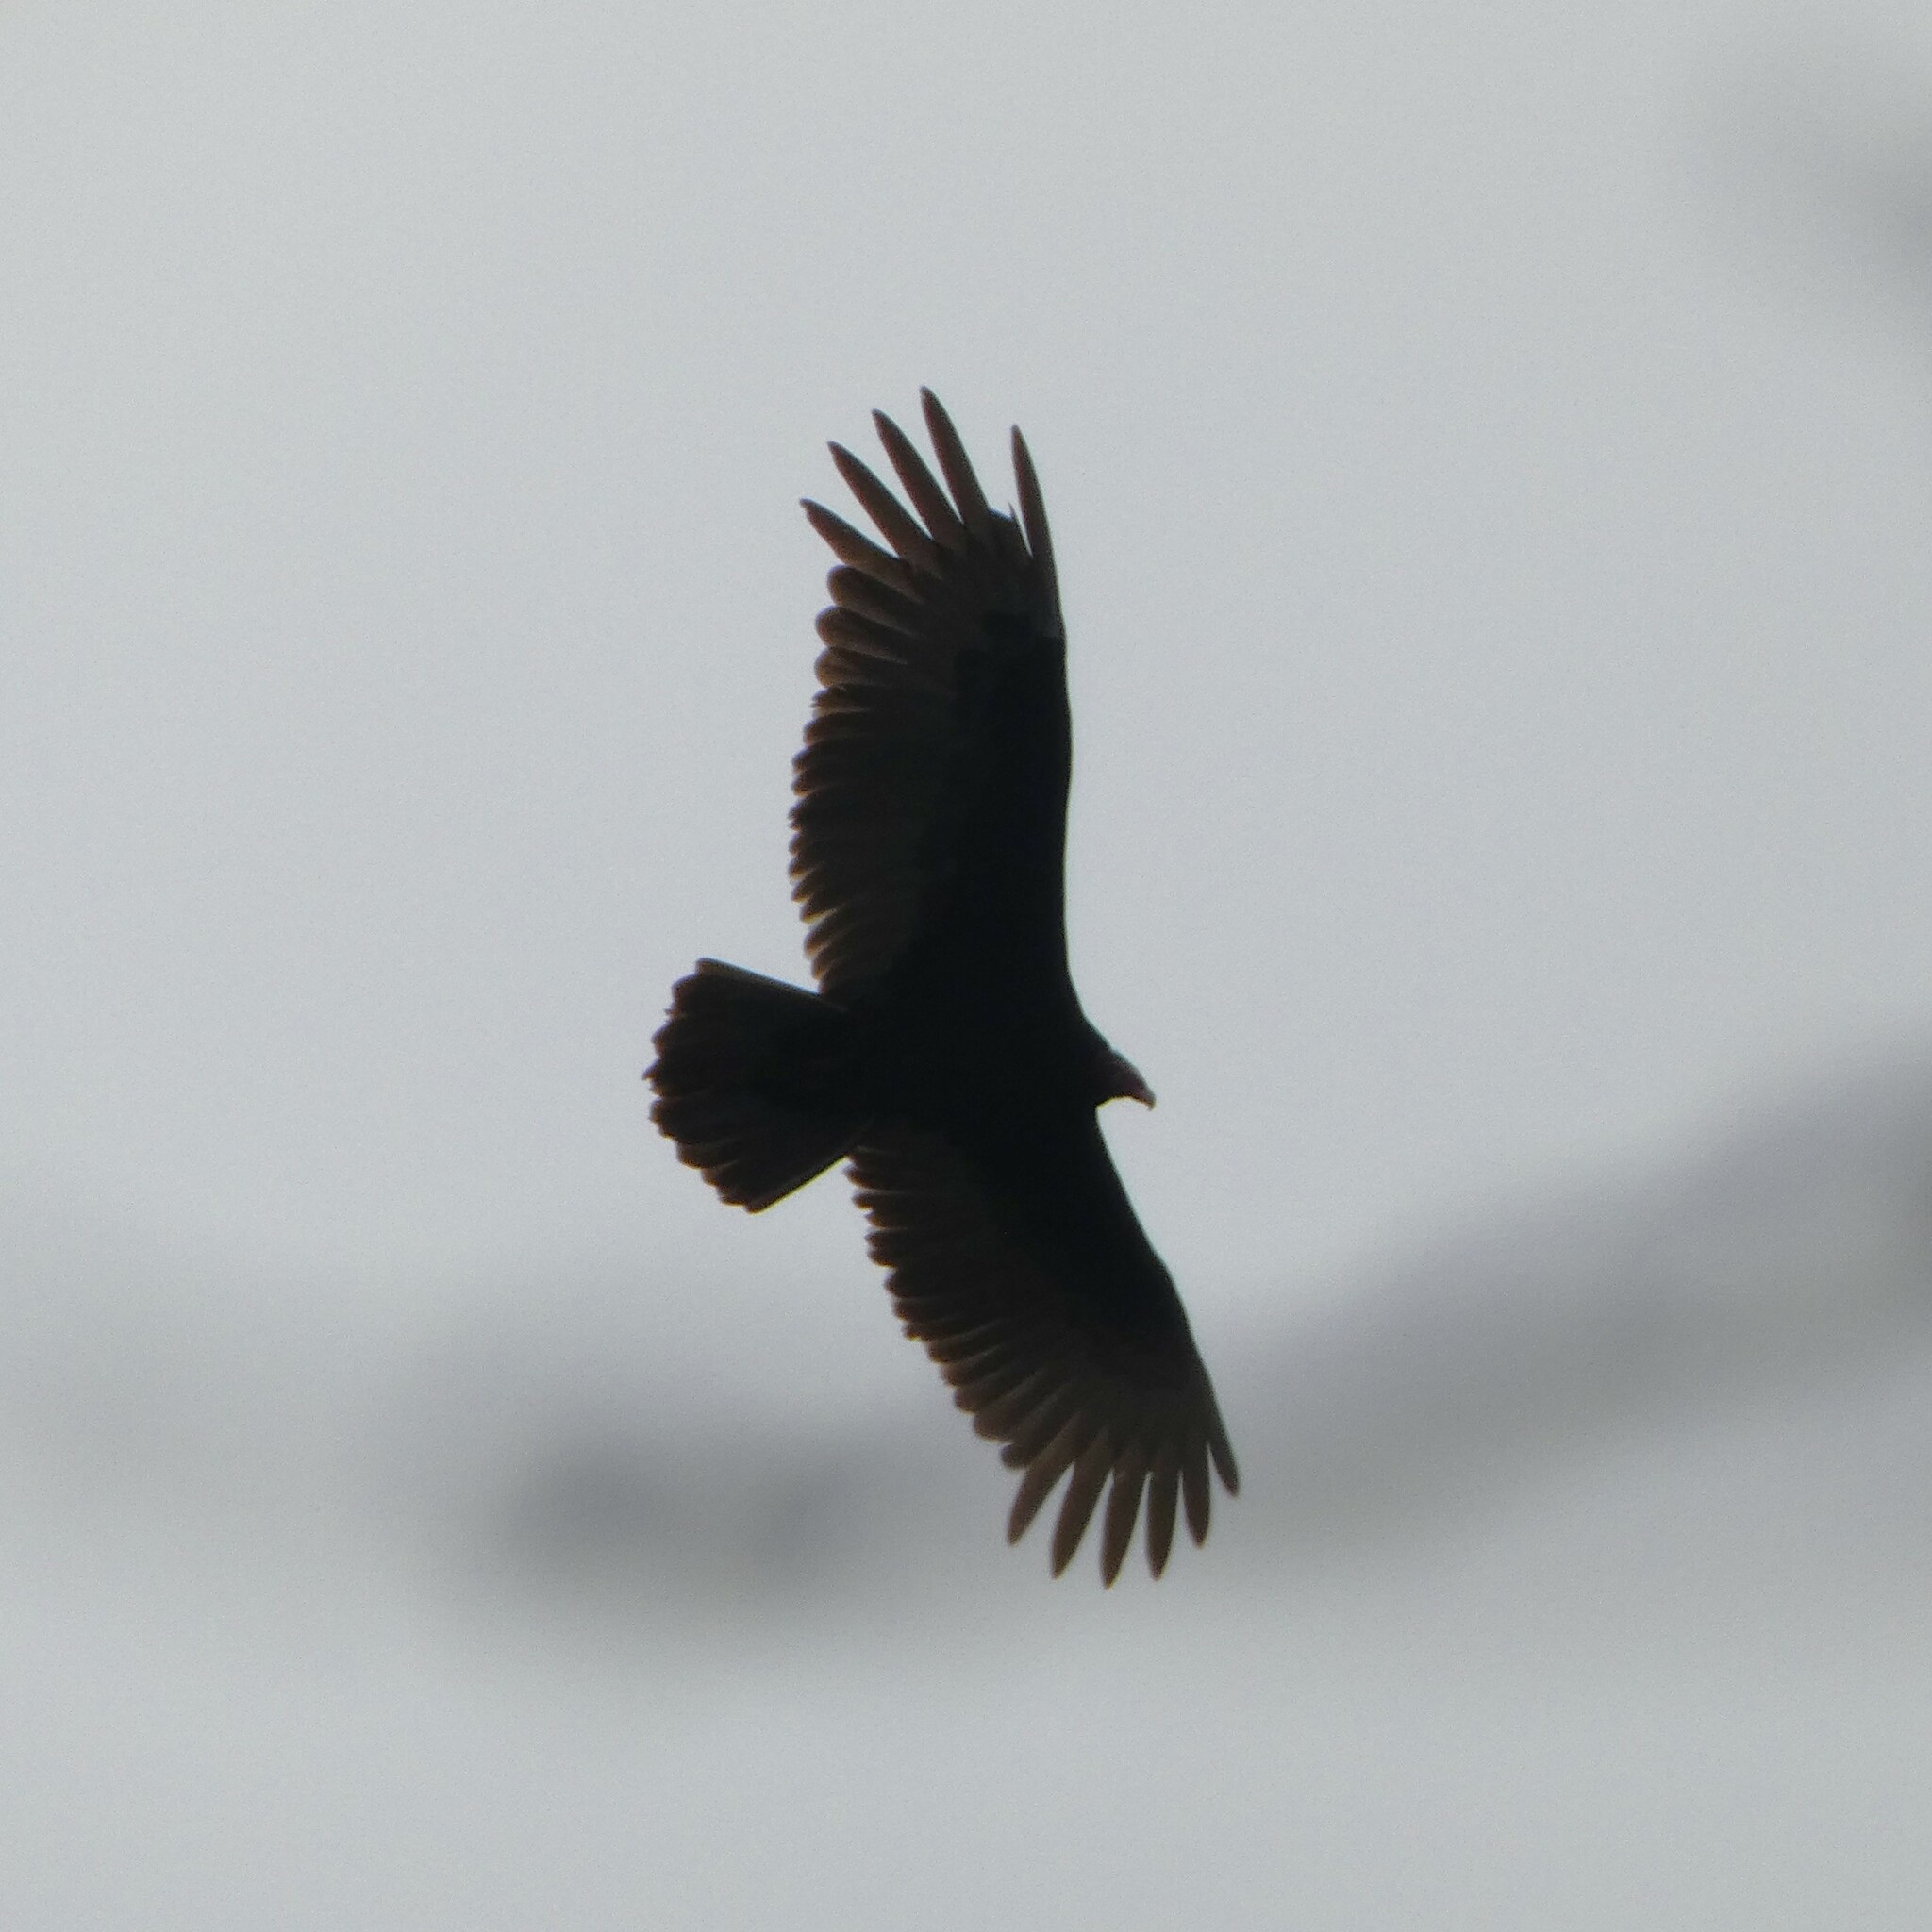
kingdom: Animalia
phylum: Chordata
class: Aves
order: Accipitriformes
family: Cathartidae
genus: Cathartes
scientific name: Cathartes aura
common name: Turkey vulture
